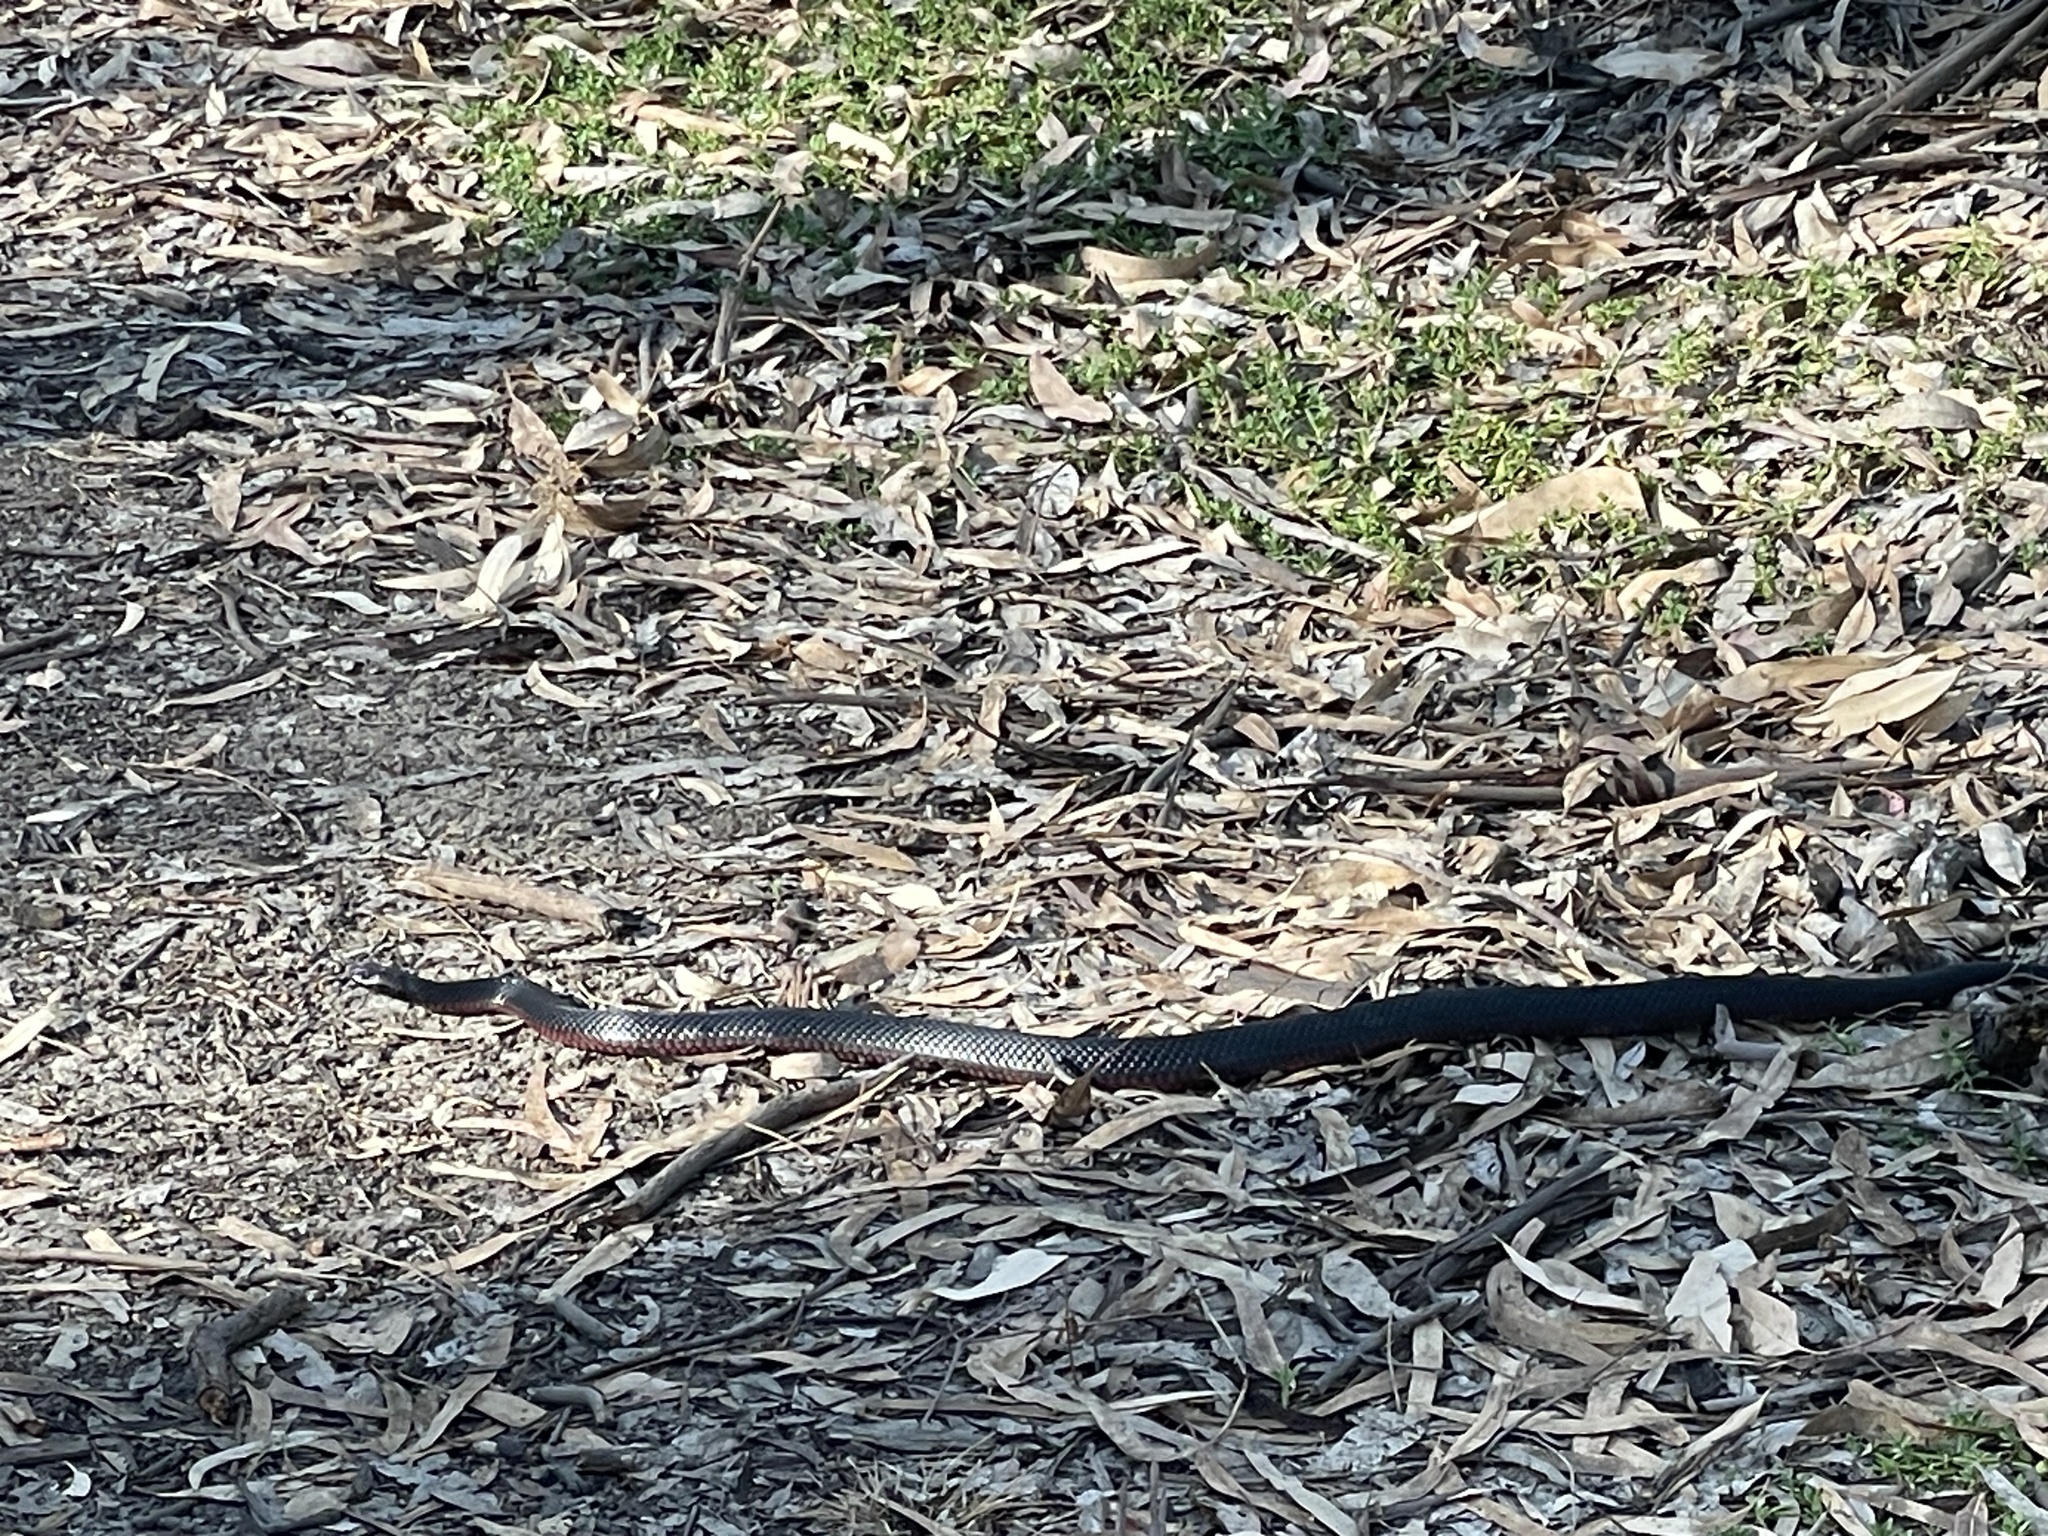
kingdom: Animalia
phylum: Chordata
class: Squamata
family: Elapidae
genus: Pseudechis
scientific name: Pseudechis porphyriacus
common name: Australian black snake
